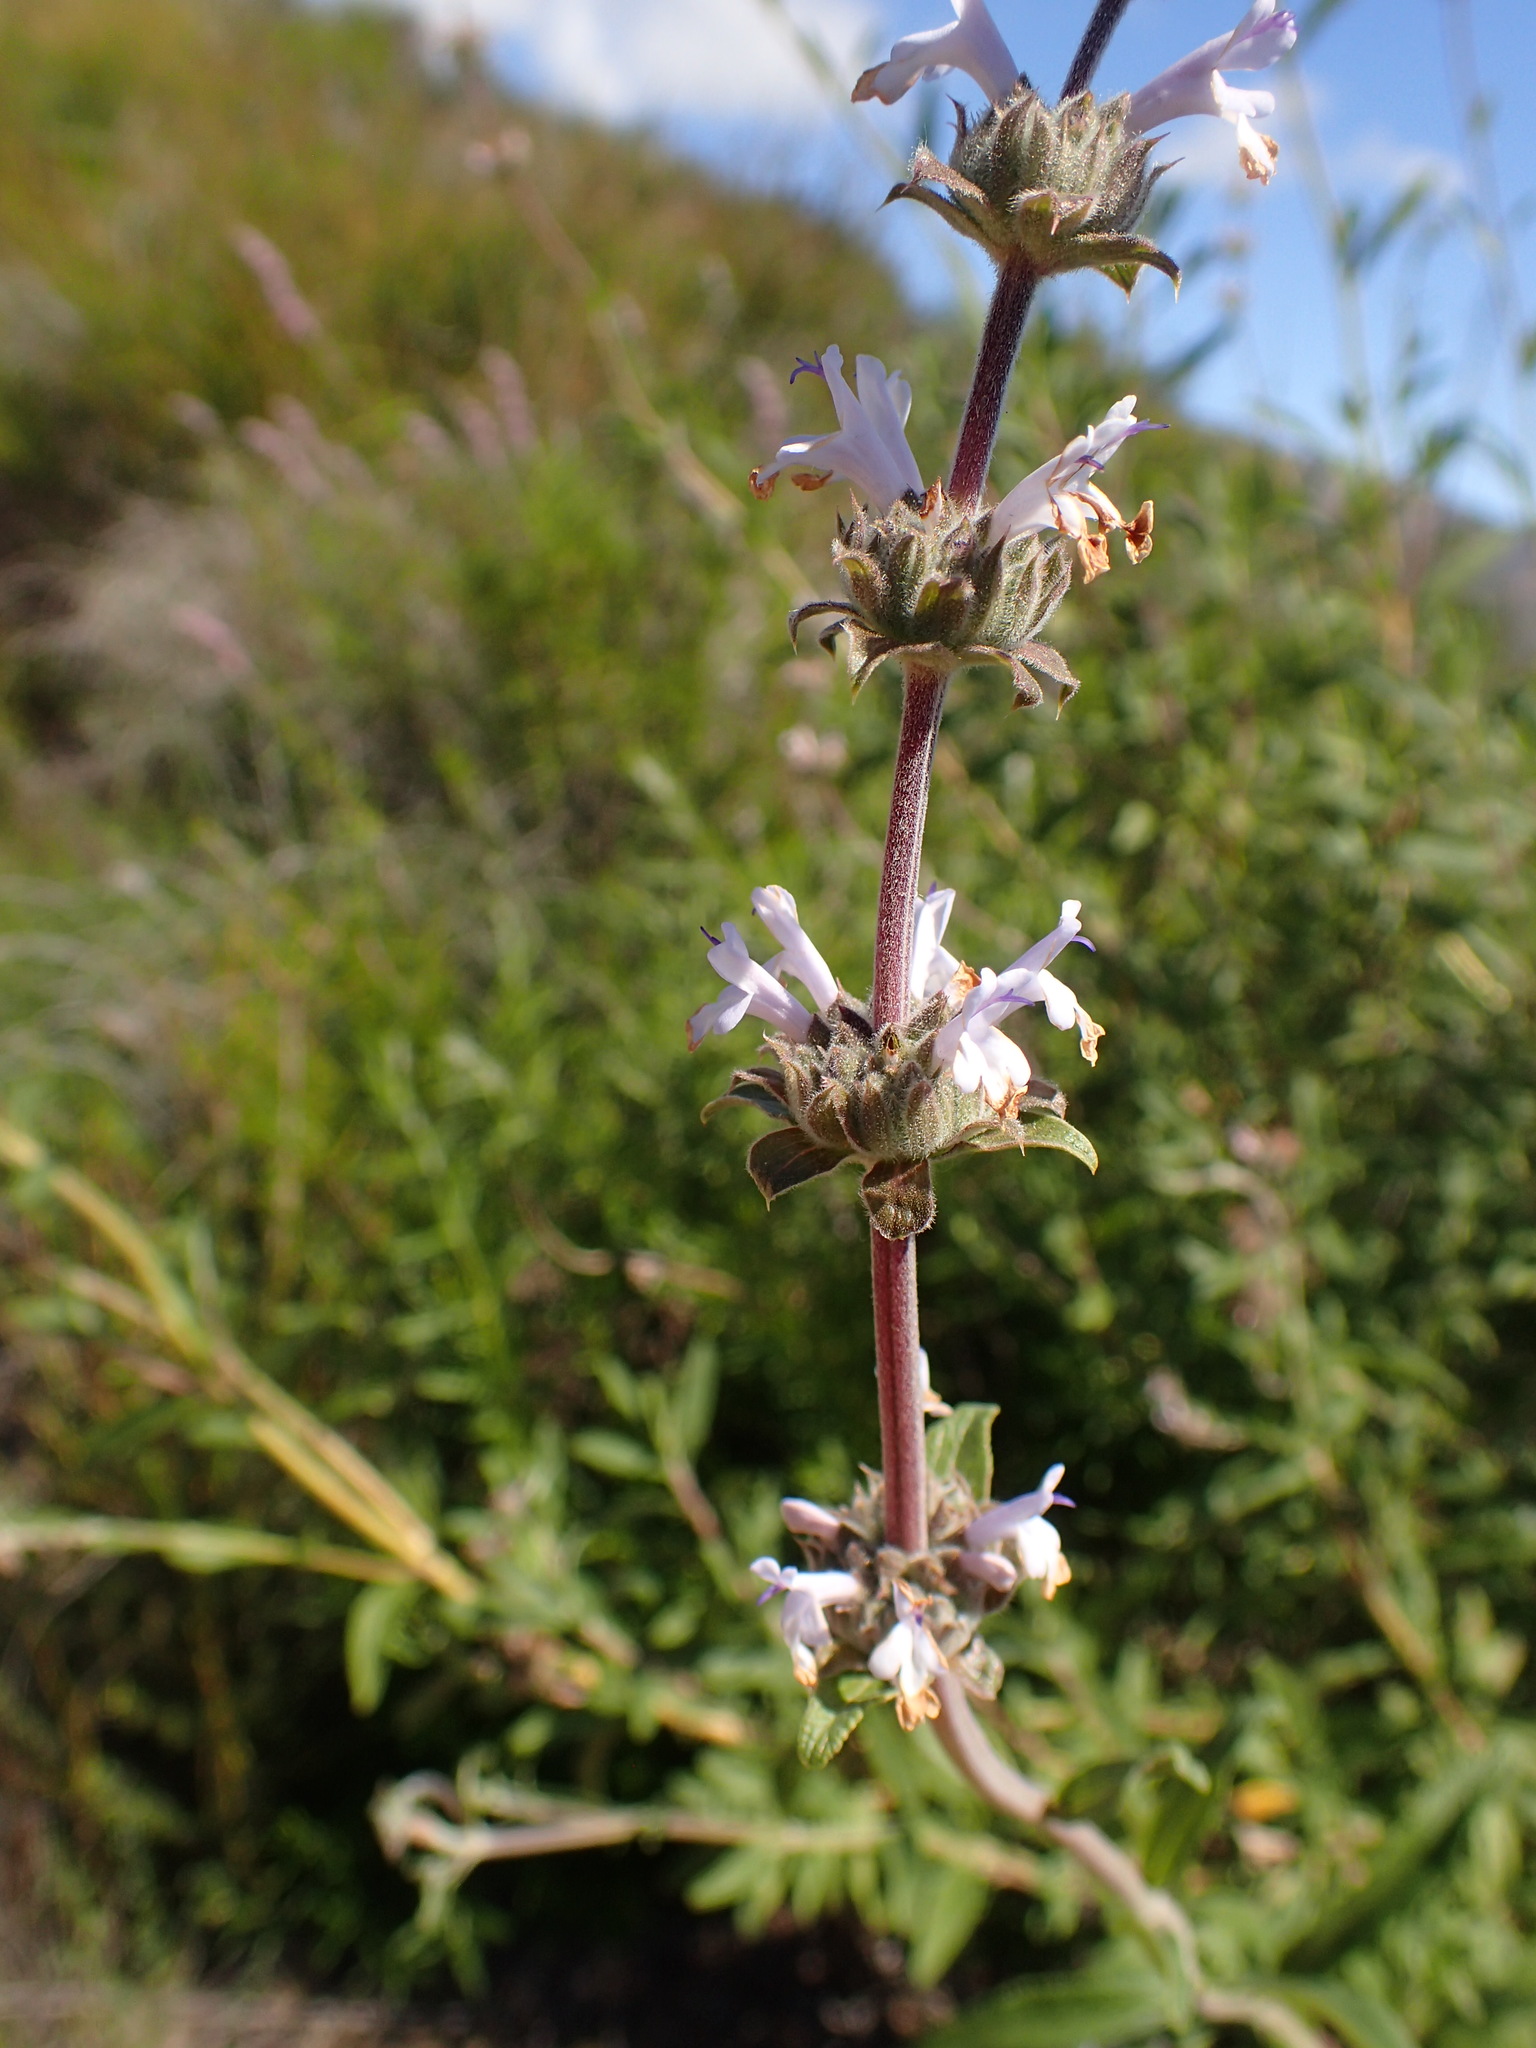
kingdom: Plantae
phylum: Tracheophyta
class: Magnoliopsida
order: Lamiales
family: Lamiaceae
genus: Salvia
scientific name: Salvia mellifera
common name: Black sage
